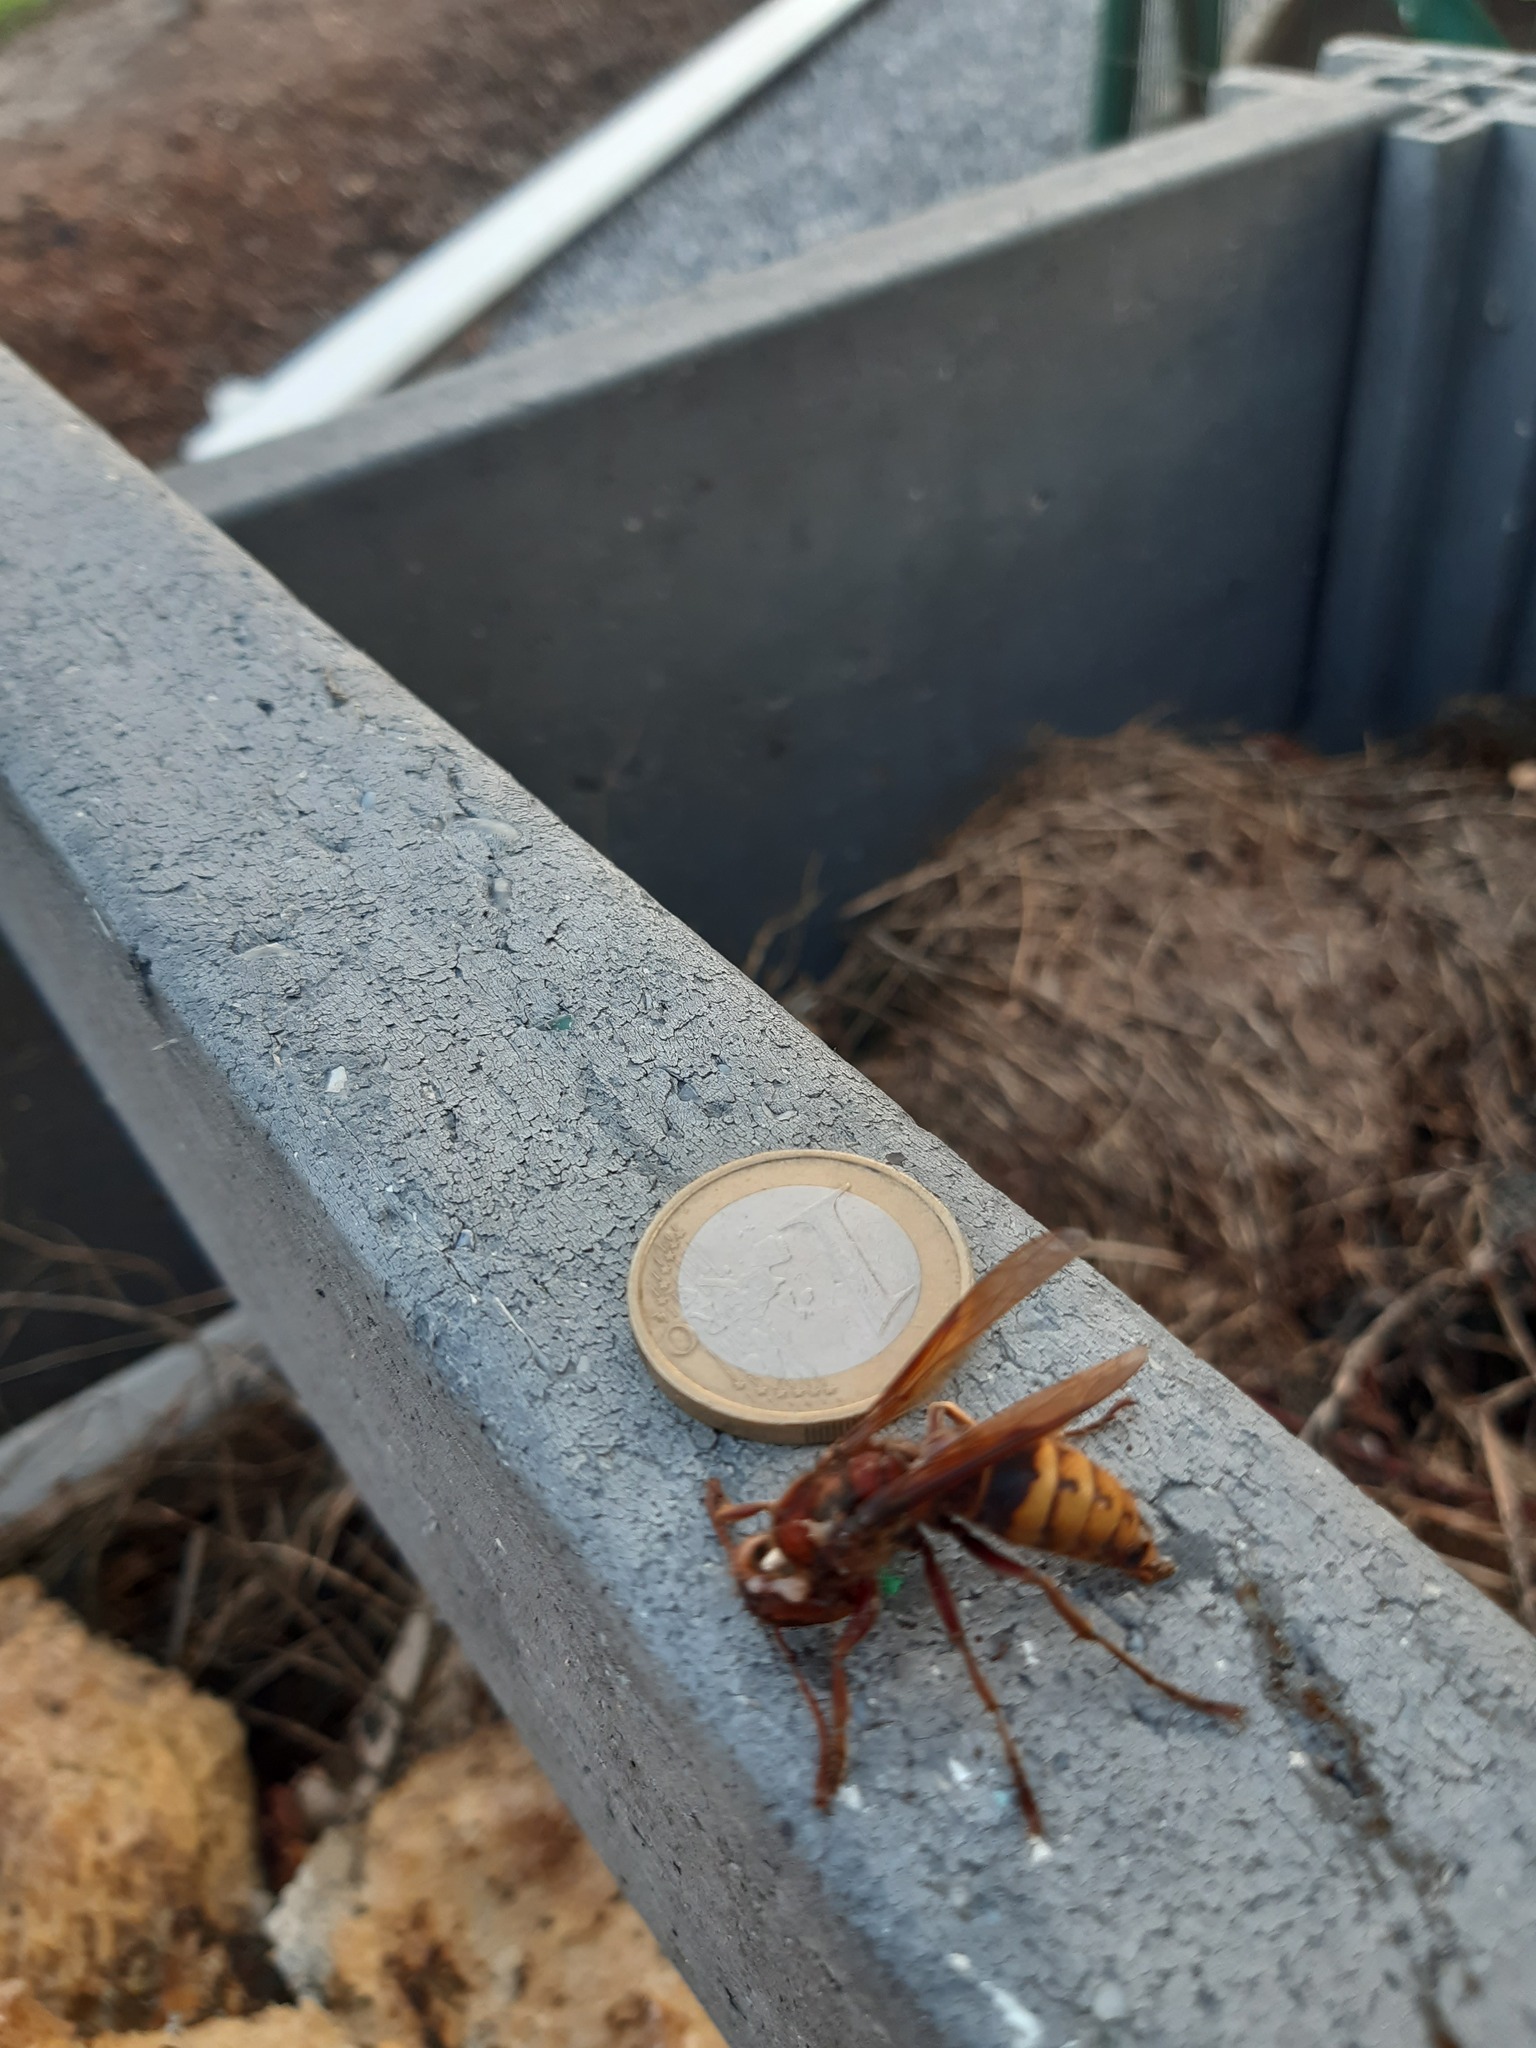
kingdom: Animalia
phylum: Arthropoda
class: Insecta
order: Hymenoptera
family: Vespidae
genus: Vespa
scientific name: Vespa crabro
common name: Hornet
